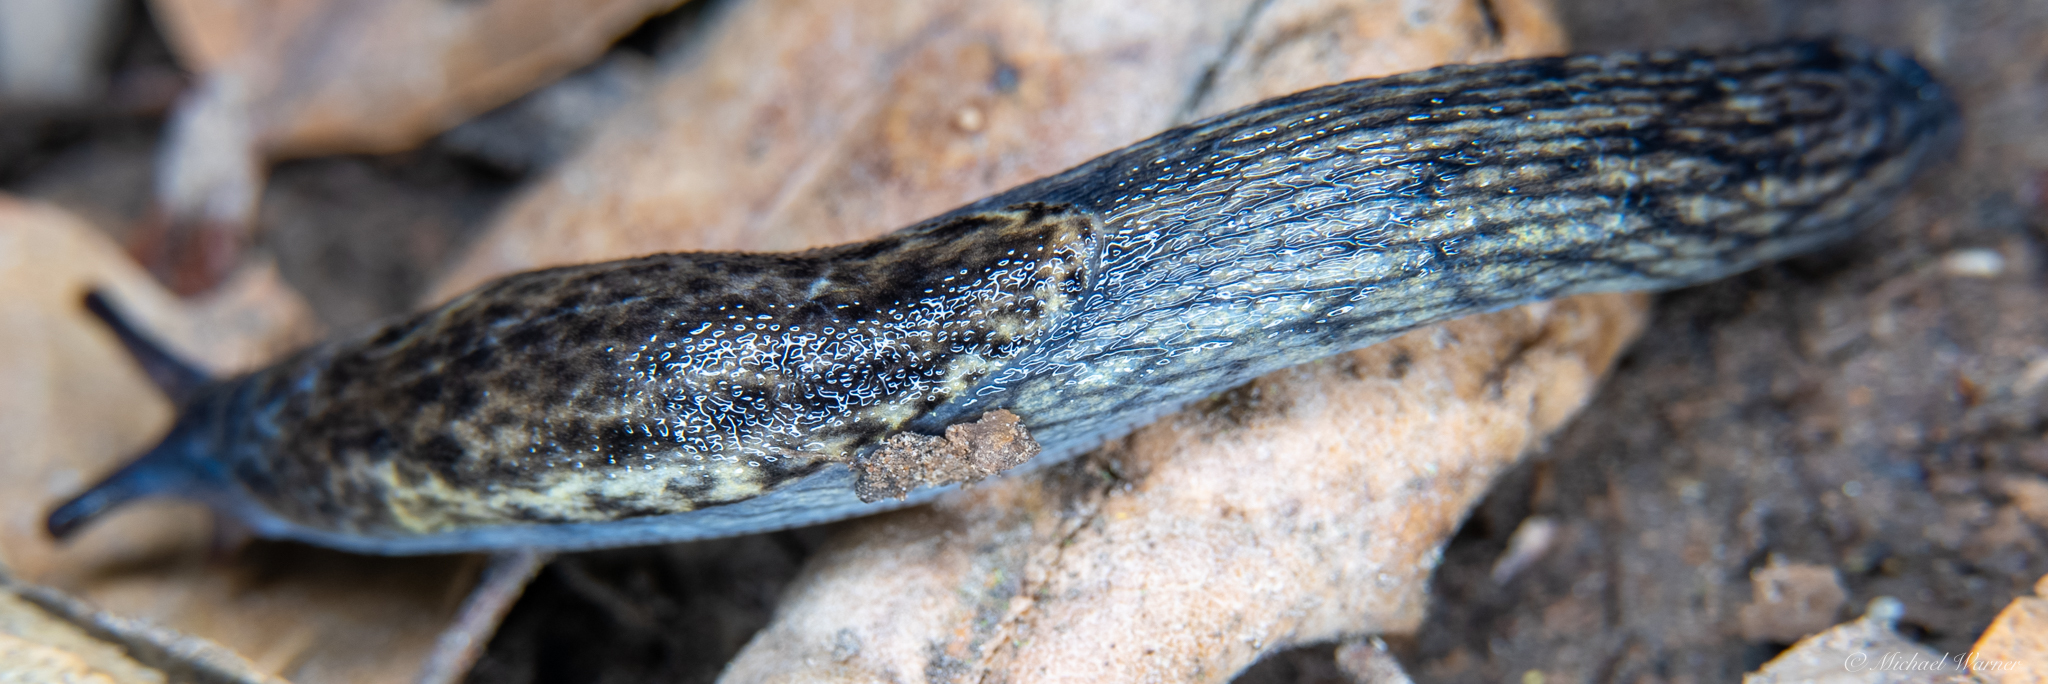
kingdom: Animalia
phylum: Mollusca
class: Gastropoda
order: Stylommatophora
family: Ariolimacidae
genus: Prophysaon
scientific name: Prophysaon andersonii
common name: Reticulate taildropper
